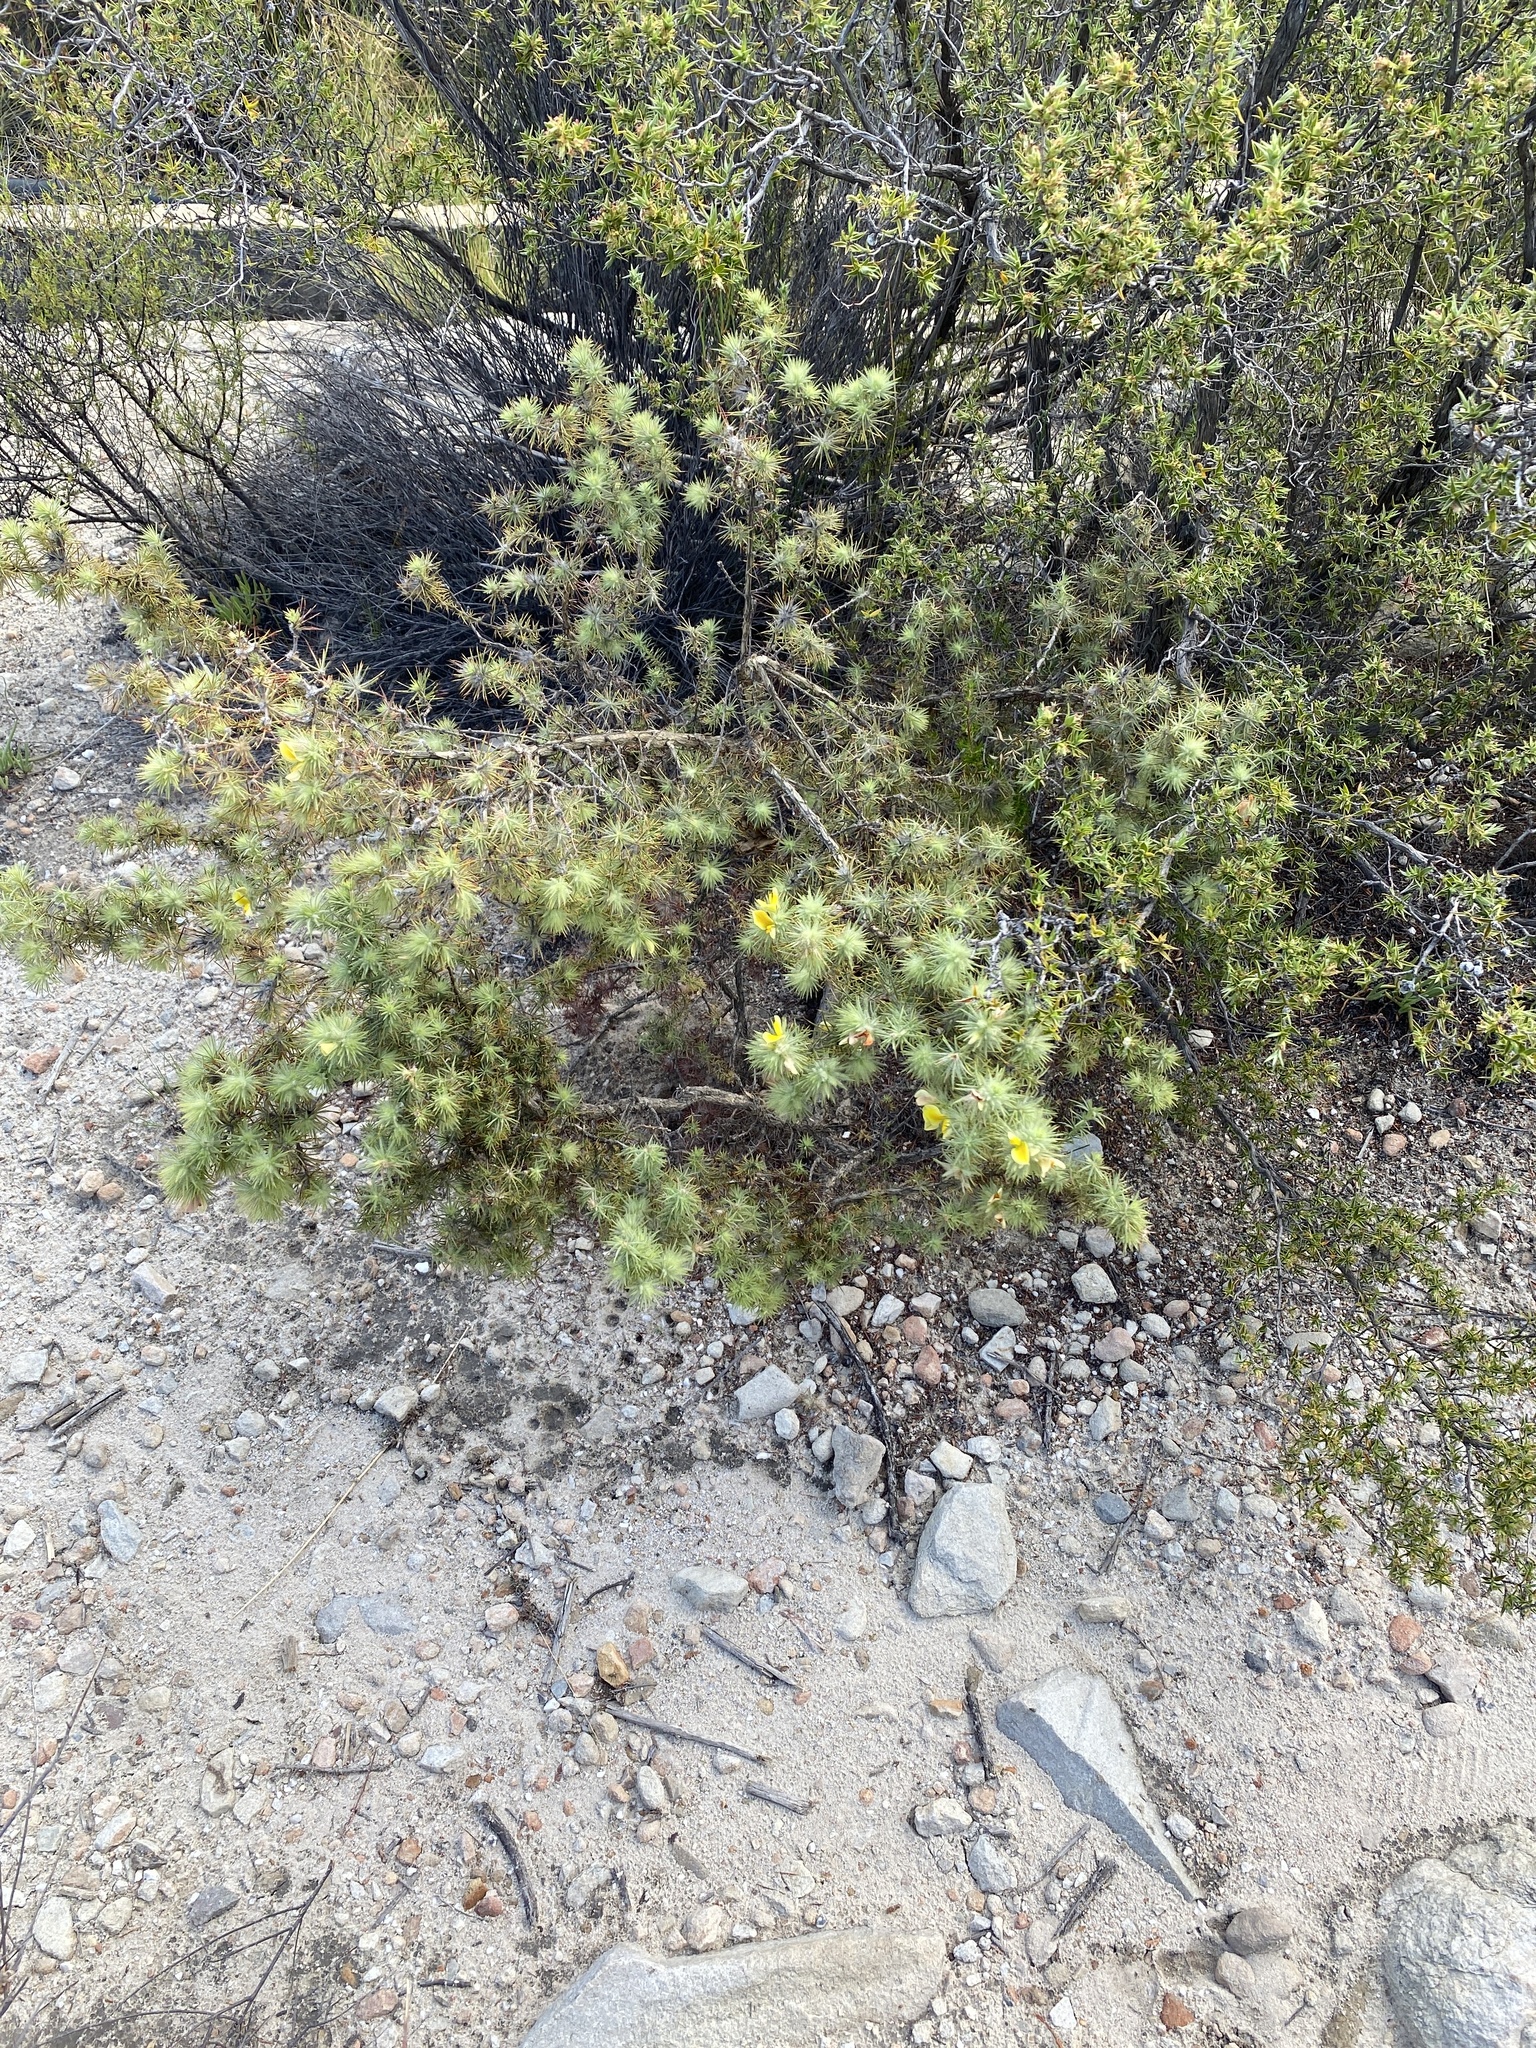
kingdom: Plantae
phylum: Tracheophyta
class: Magnoliopsida
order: Fabales
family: Fabaceae
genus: Aspalathus
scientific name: Aspalathus rubiginosa
